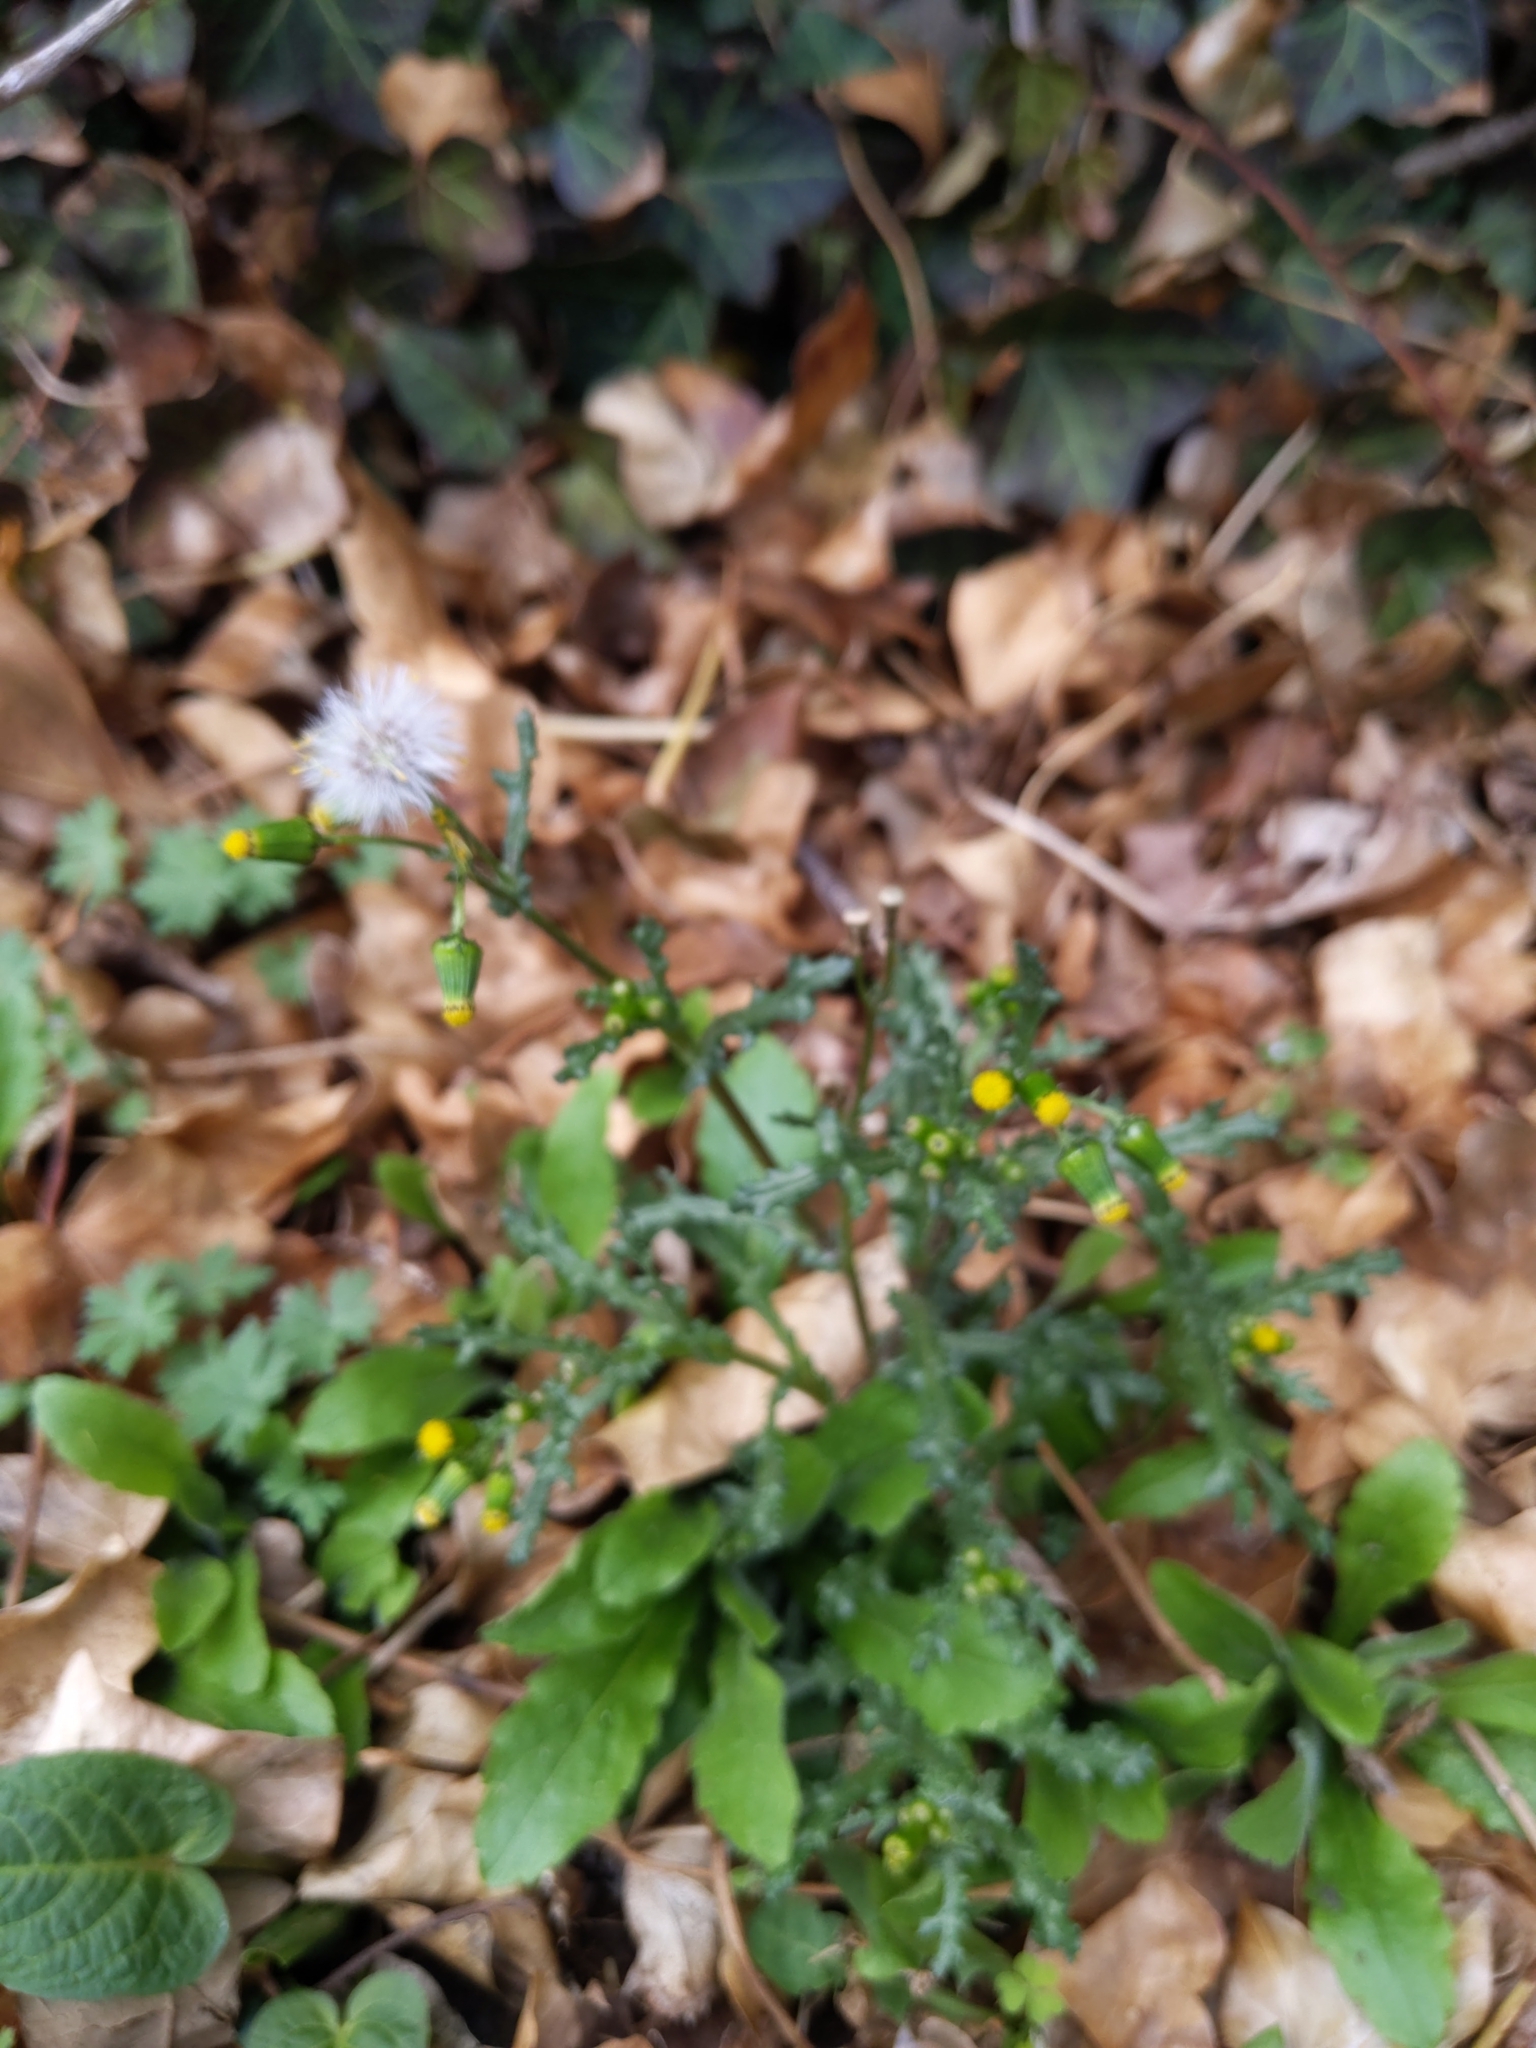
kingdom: Plantae
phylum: Tracheophyta
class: Magnoliopsida
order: Asterales
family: Asteraceae
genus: Senecio
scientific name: Senecio vulgaris
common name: Old-man-in-the-spring
